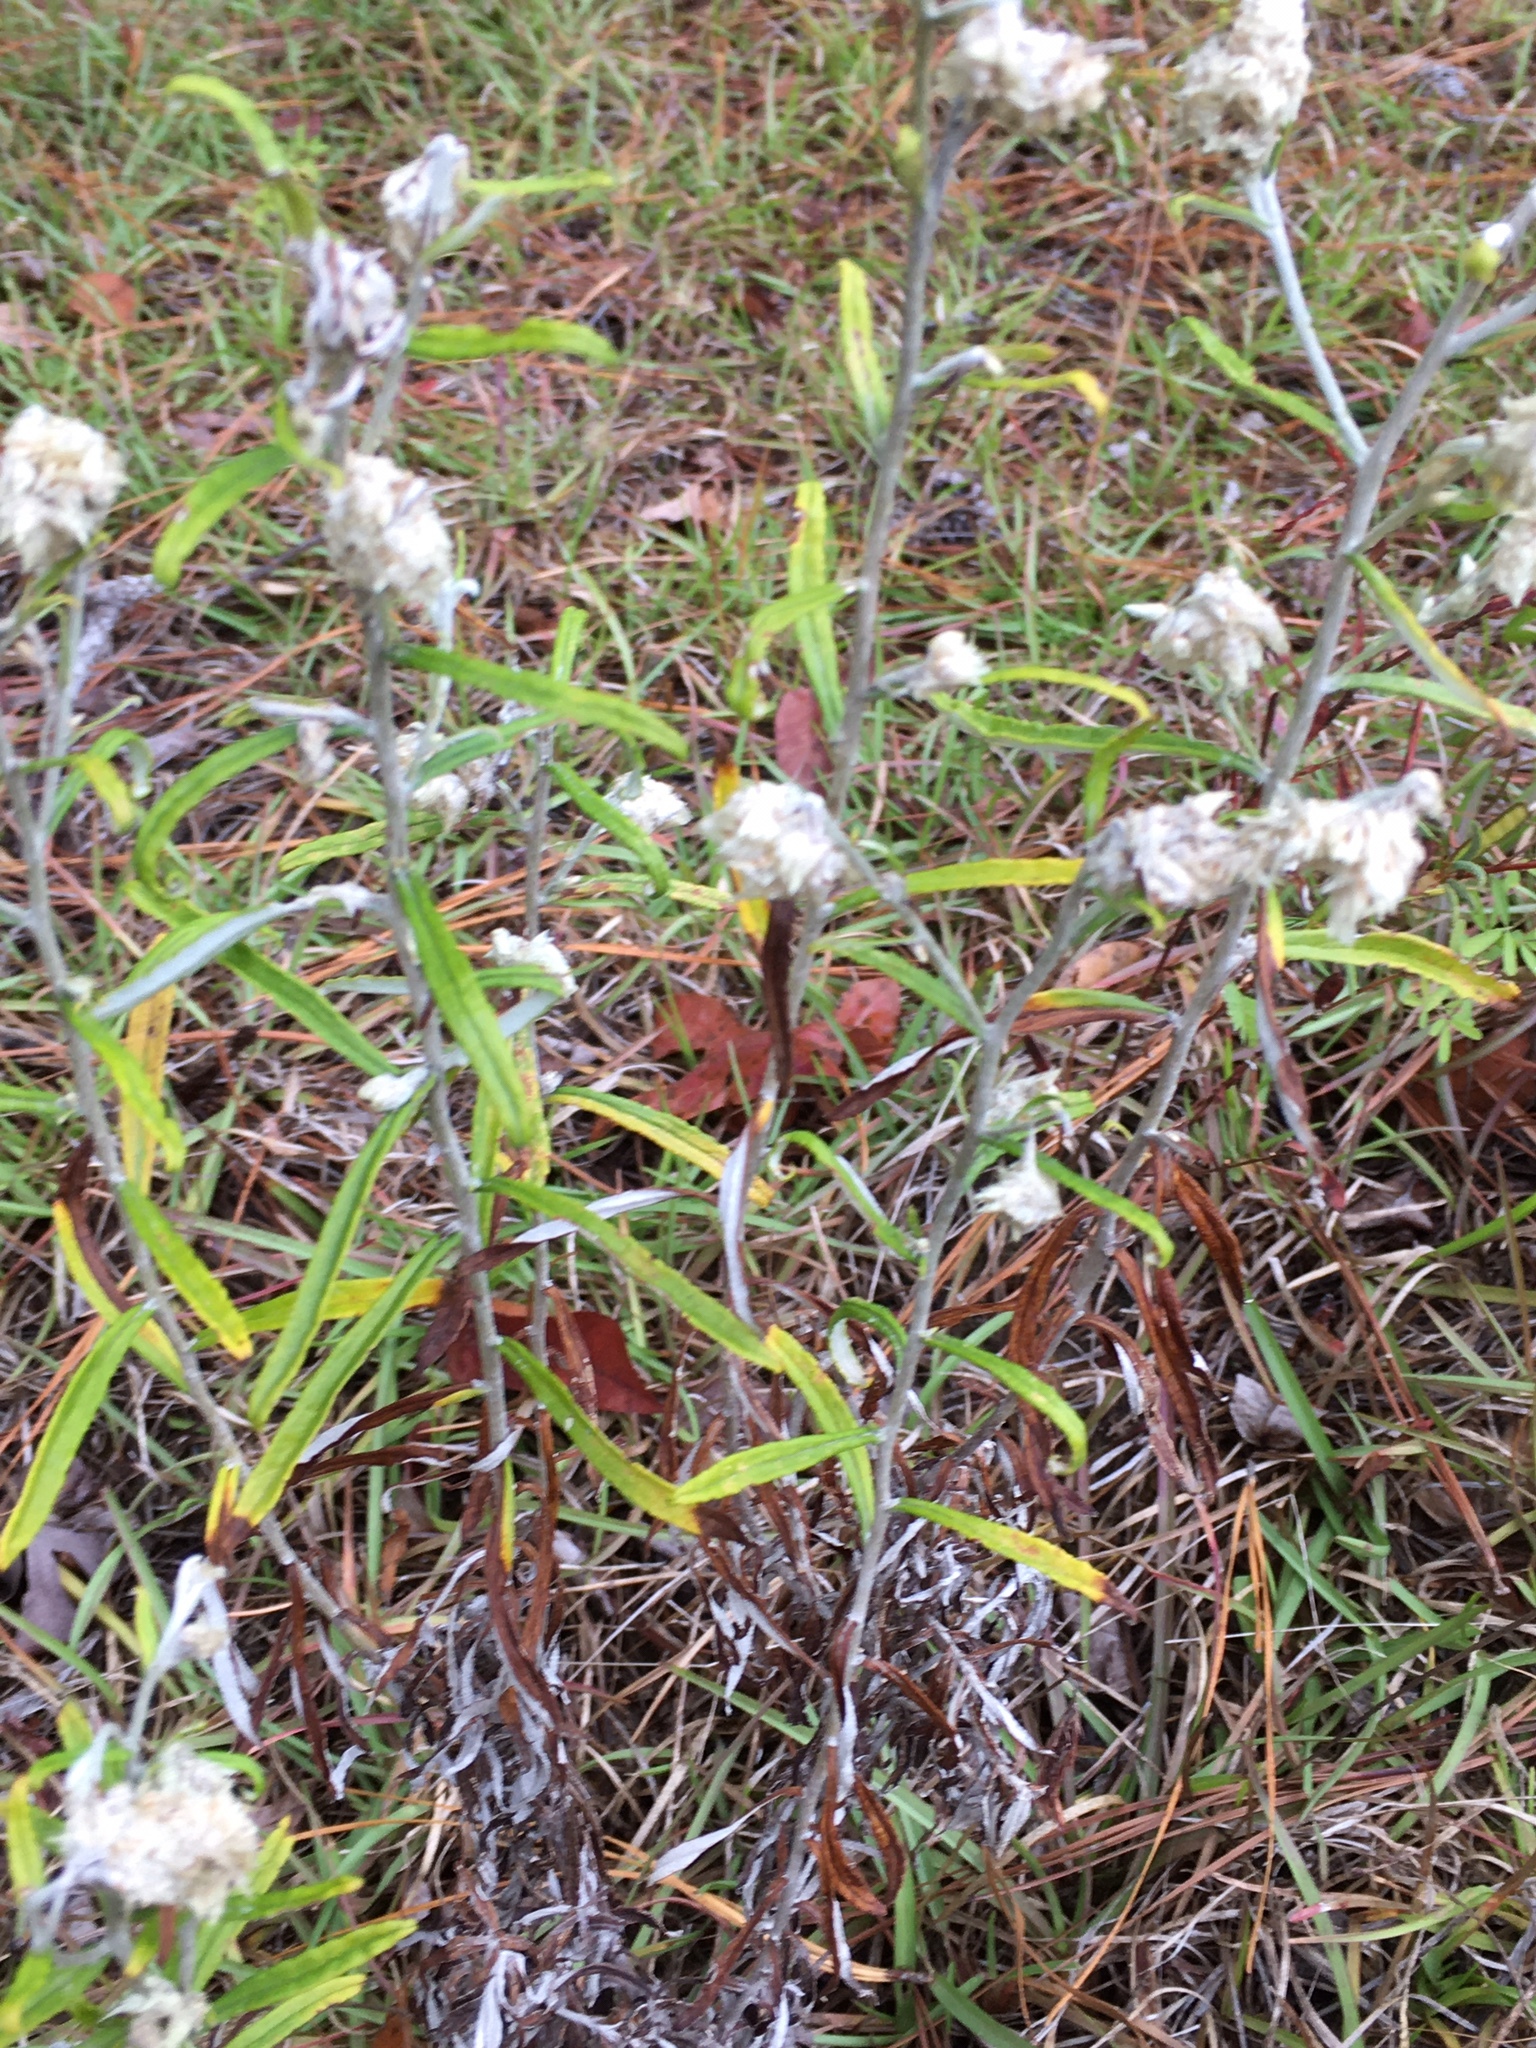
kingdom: Plantae
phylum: Tracheophyta
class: Magnoliopsida
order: Asterales
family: Asteraceae
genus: Pseudognaphalium
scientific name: Pseudognaphalium obtusifolium
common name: Eastern rabbit-tobacco
